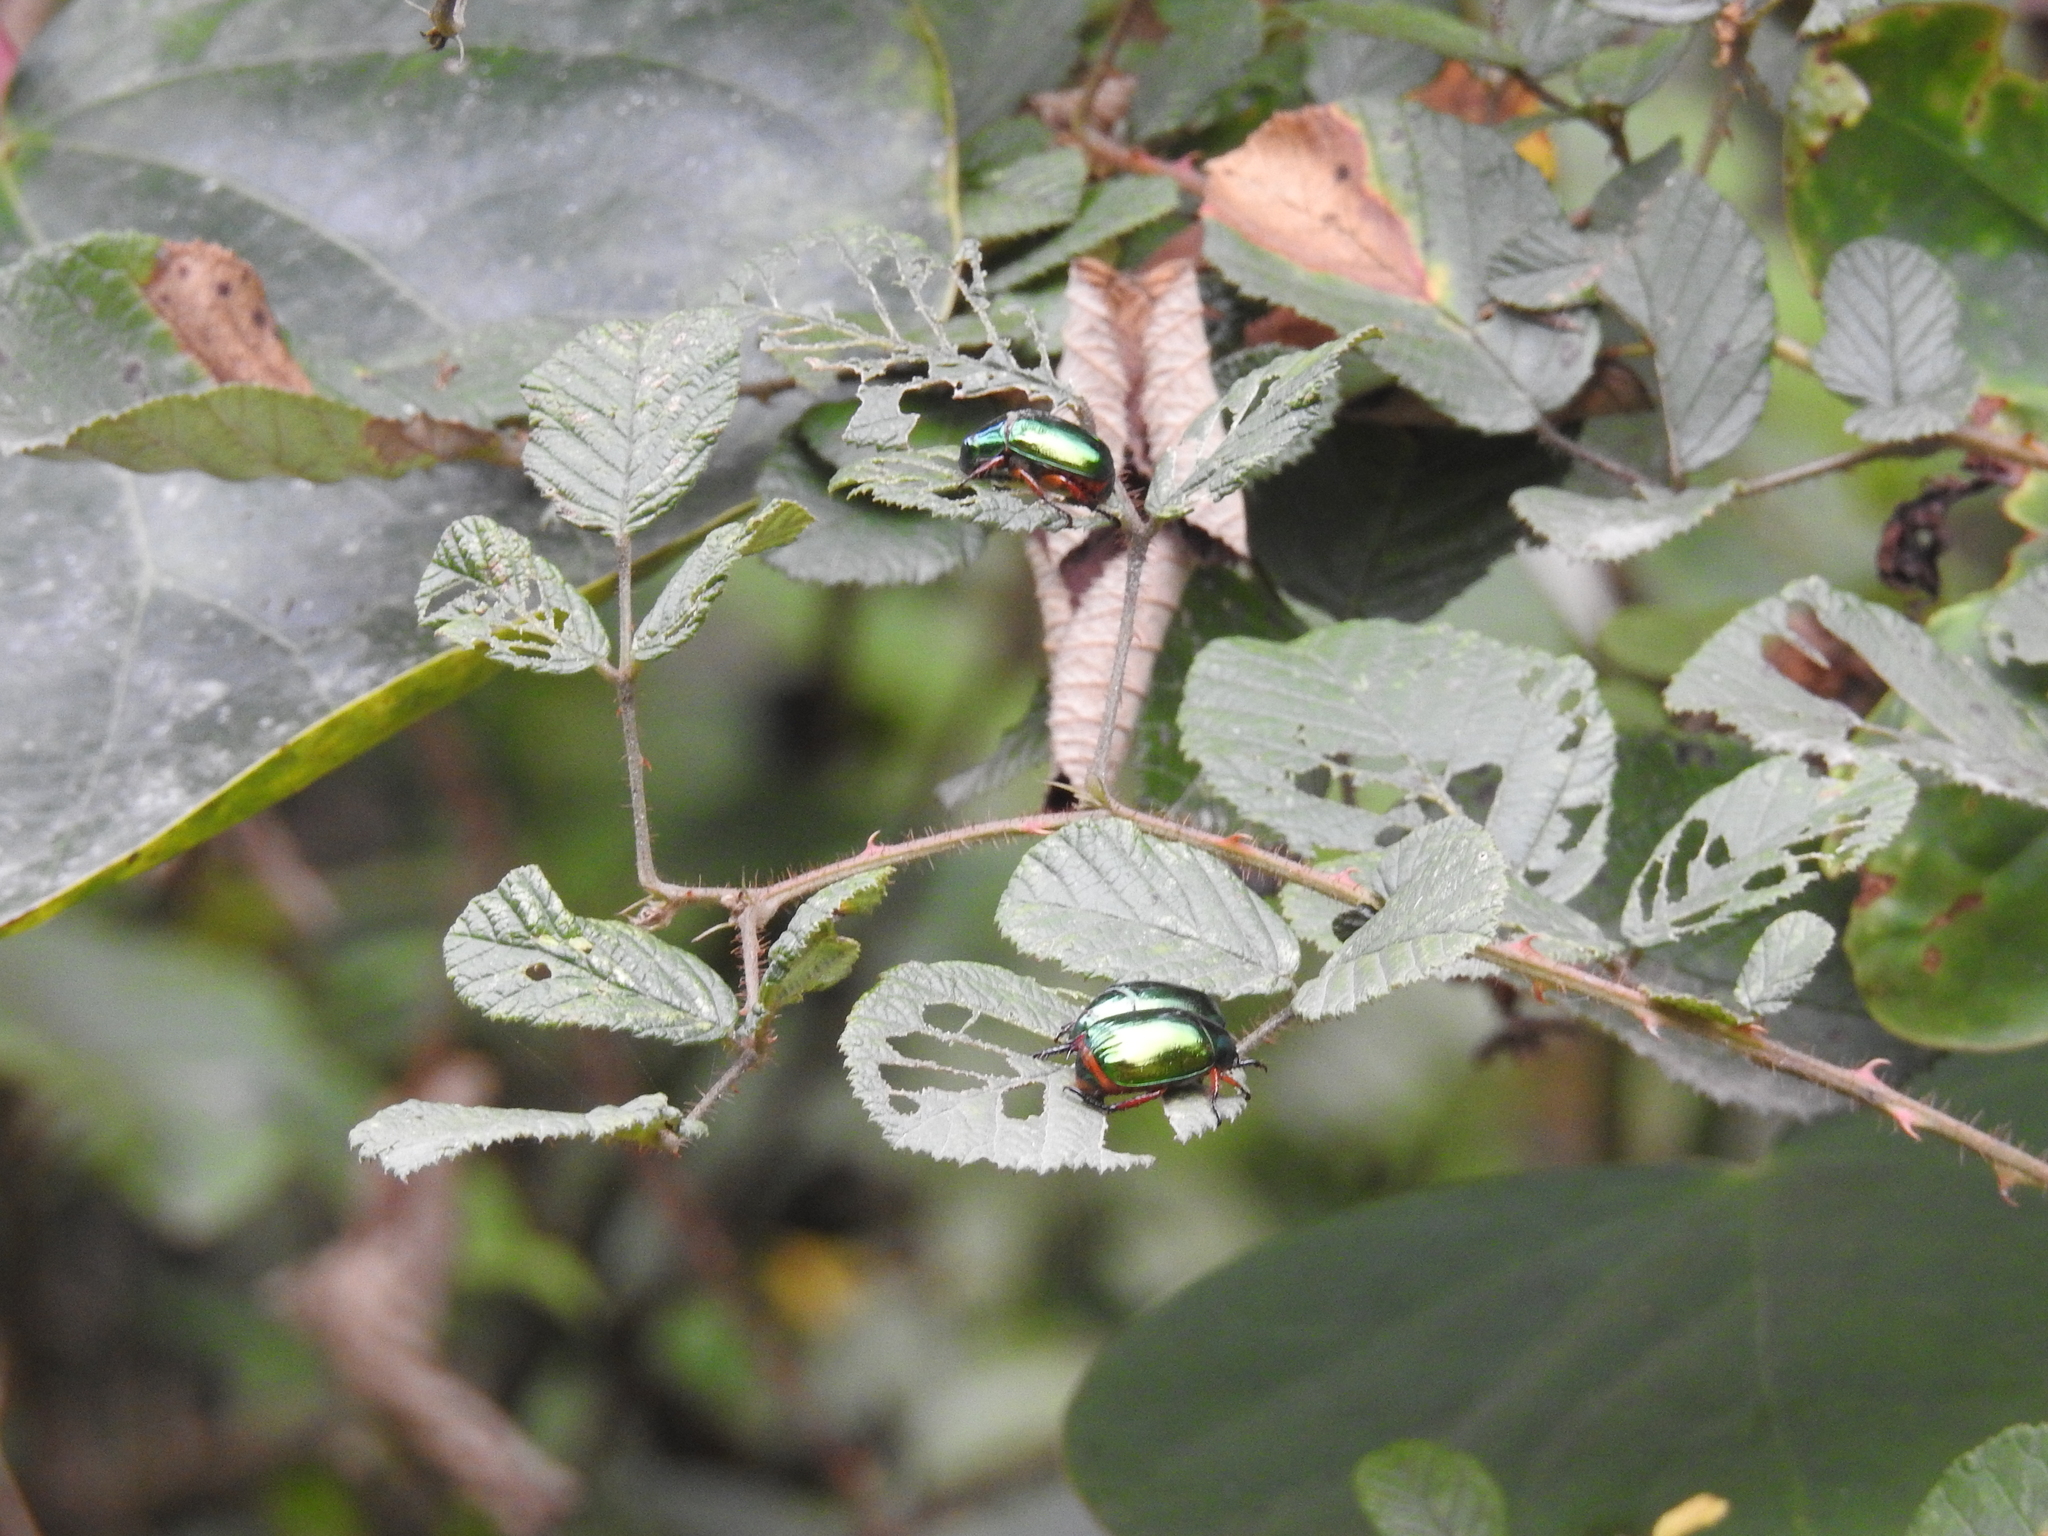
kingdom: Animalia
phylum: Arthropoda
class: Insecta
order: Coleoptera
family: Scarabaeidae
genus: Mimela
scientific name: Mimela heterochropus
